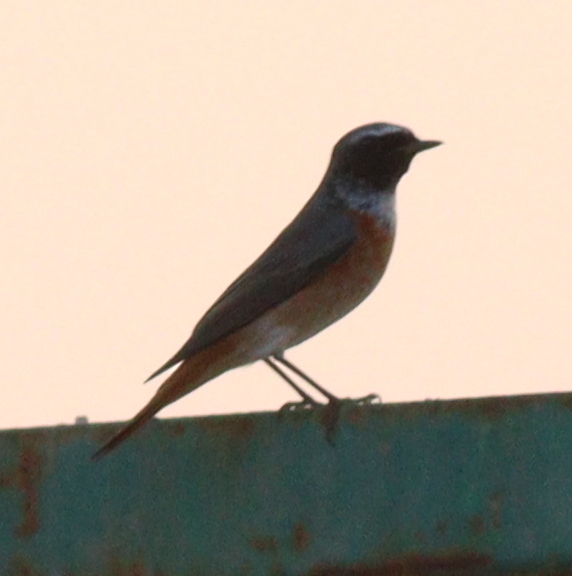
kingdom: Animalia
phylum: Chordata
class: Aves
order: Passeriformes
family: Muscicapidae
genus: Phoenicurus
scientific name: Phoenicurus phoenicurus
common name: Common redstart
